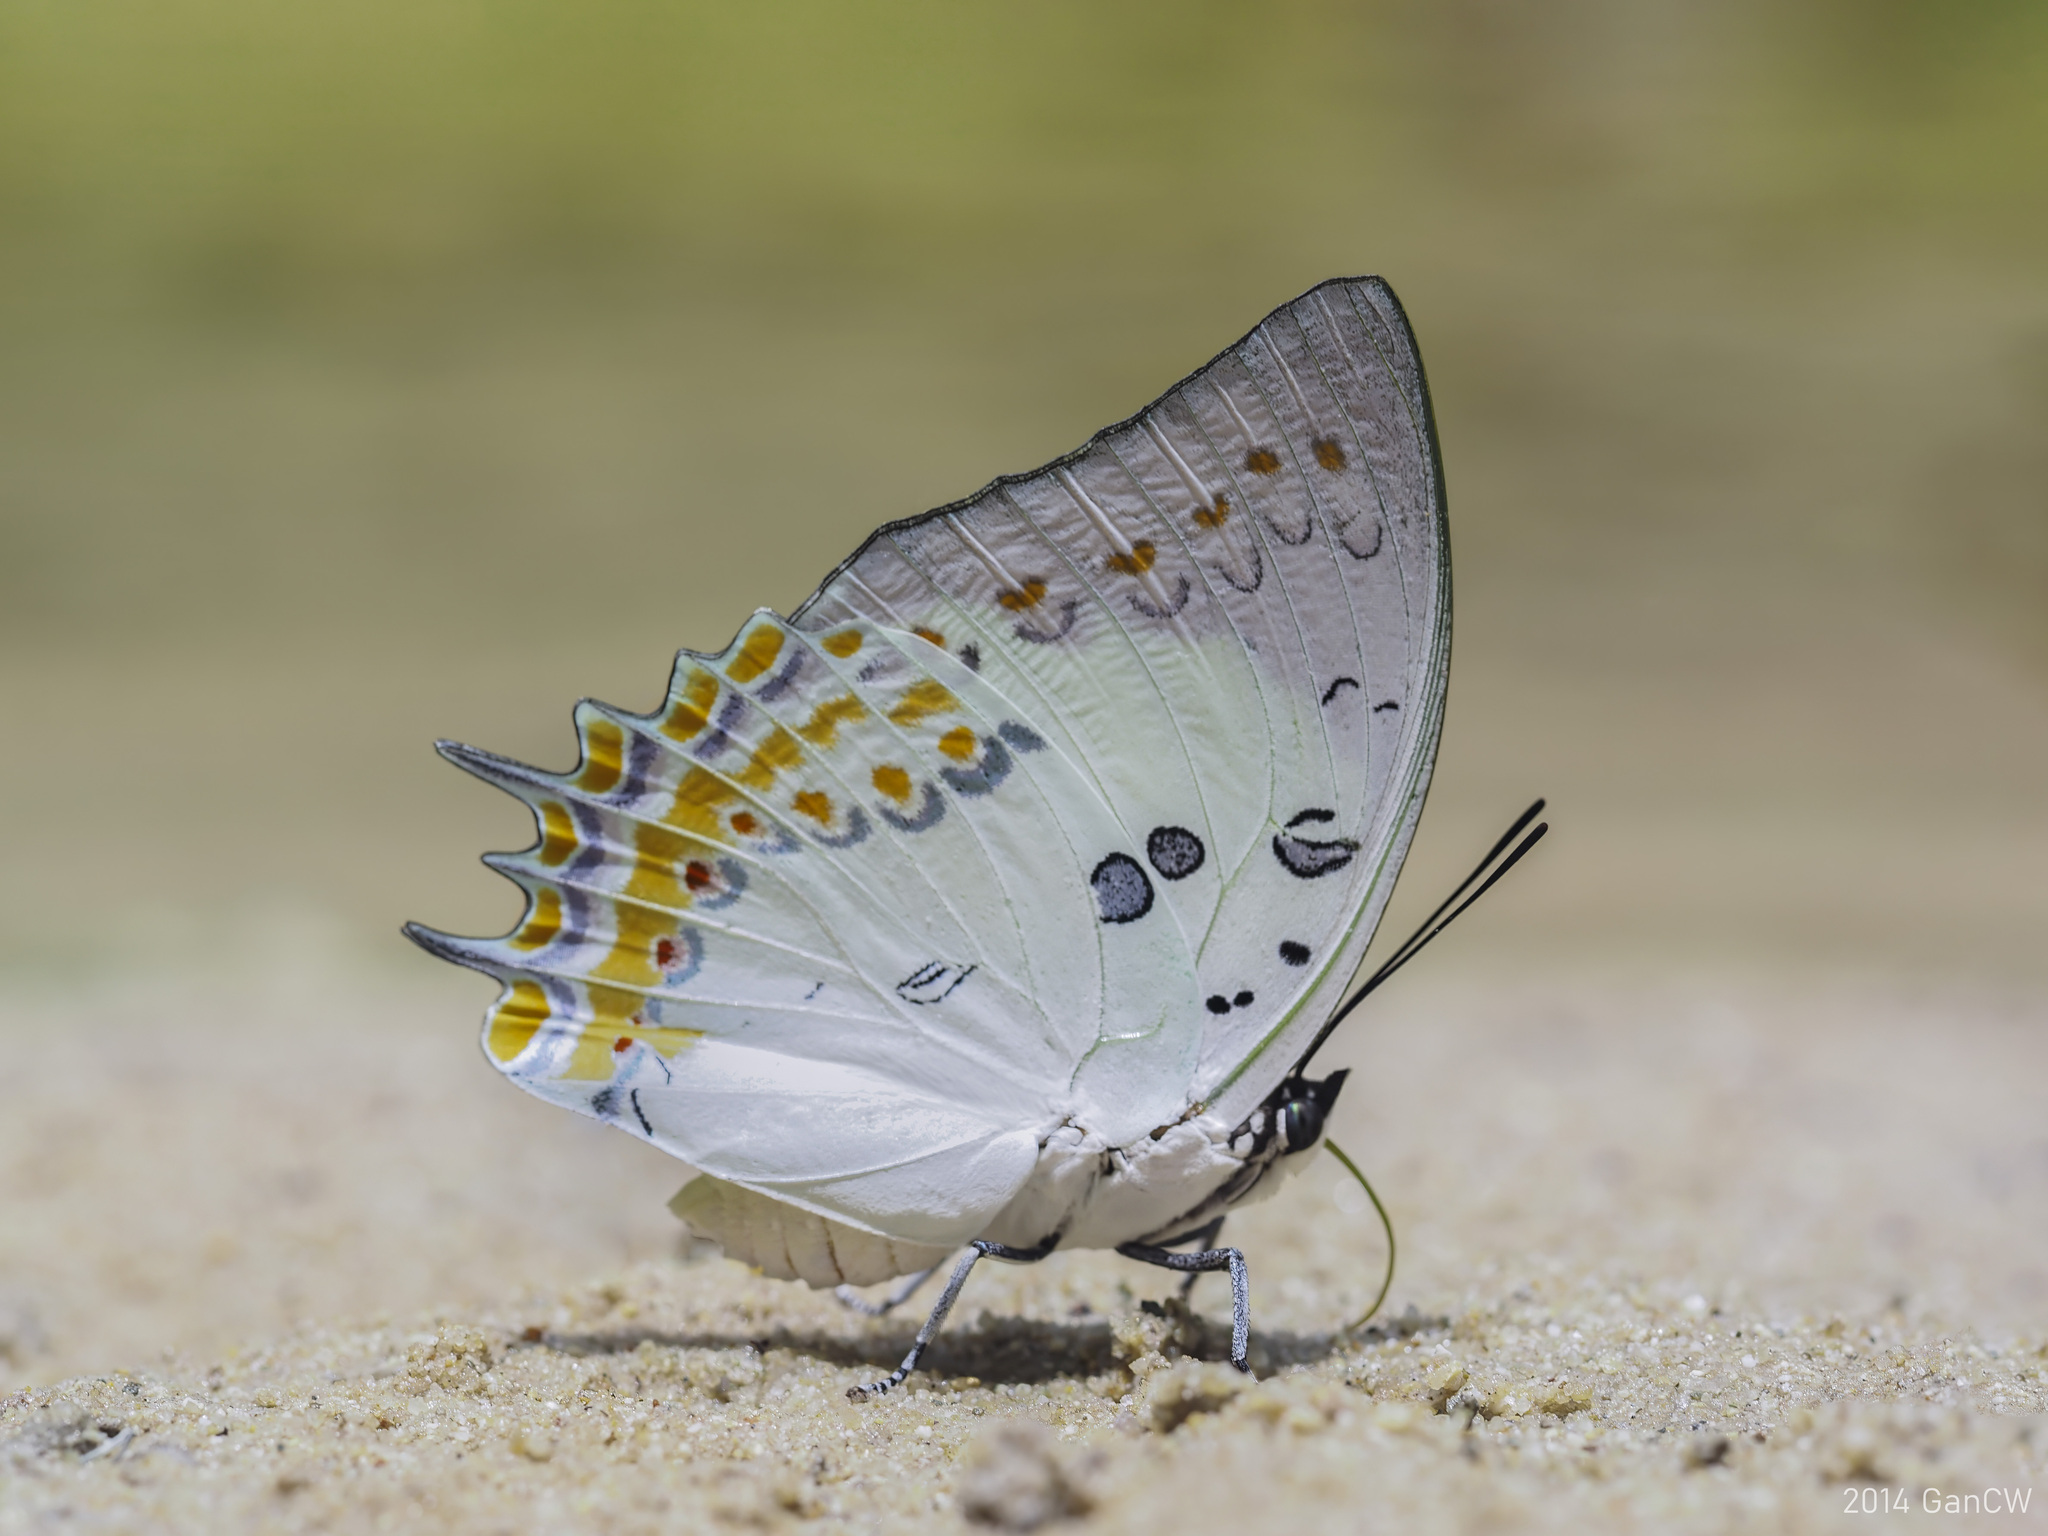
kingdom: Animalia
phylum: Arthropoda
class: Insecta
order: Lepidoptera
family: Nymphalidae
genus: Polyura
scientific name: Polyura delphis
